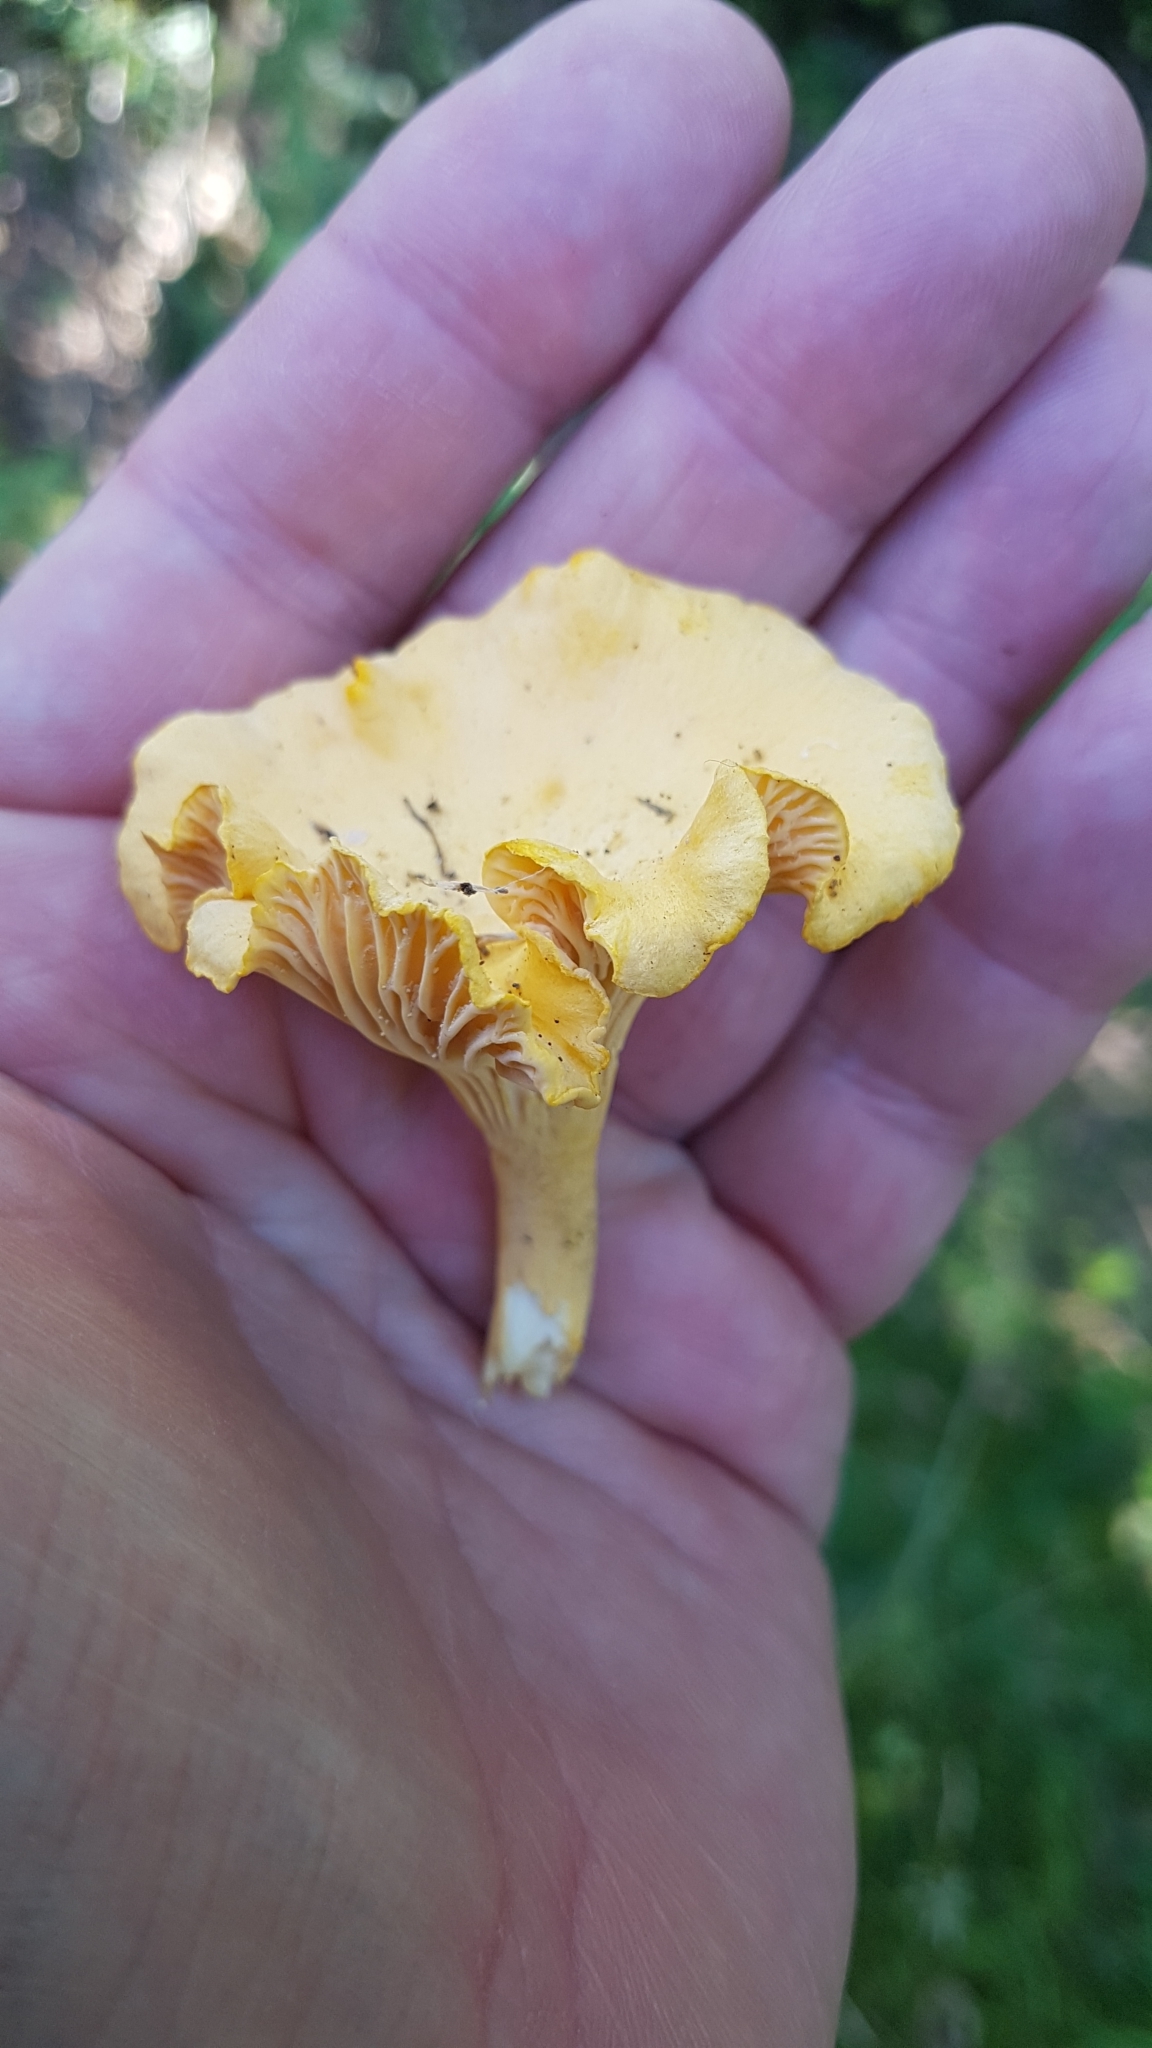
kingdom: Fungi
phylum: Basidiomycota
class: Agaricomycetes
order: Cantharellales
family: Hydnaceae
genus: Cantharellus
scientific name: Cantharellus cibarius
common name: Chanterelle
